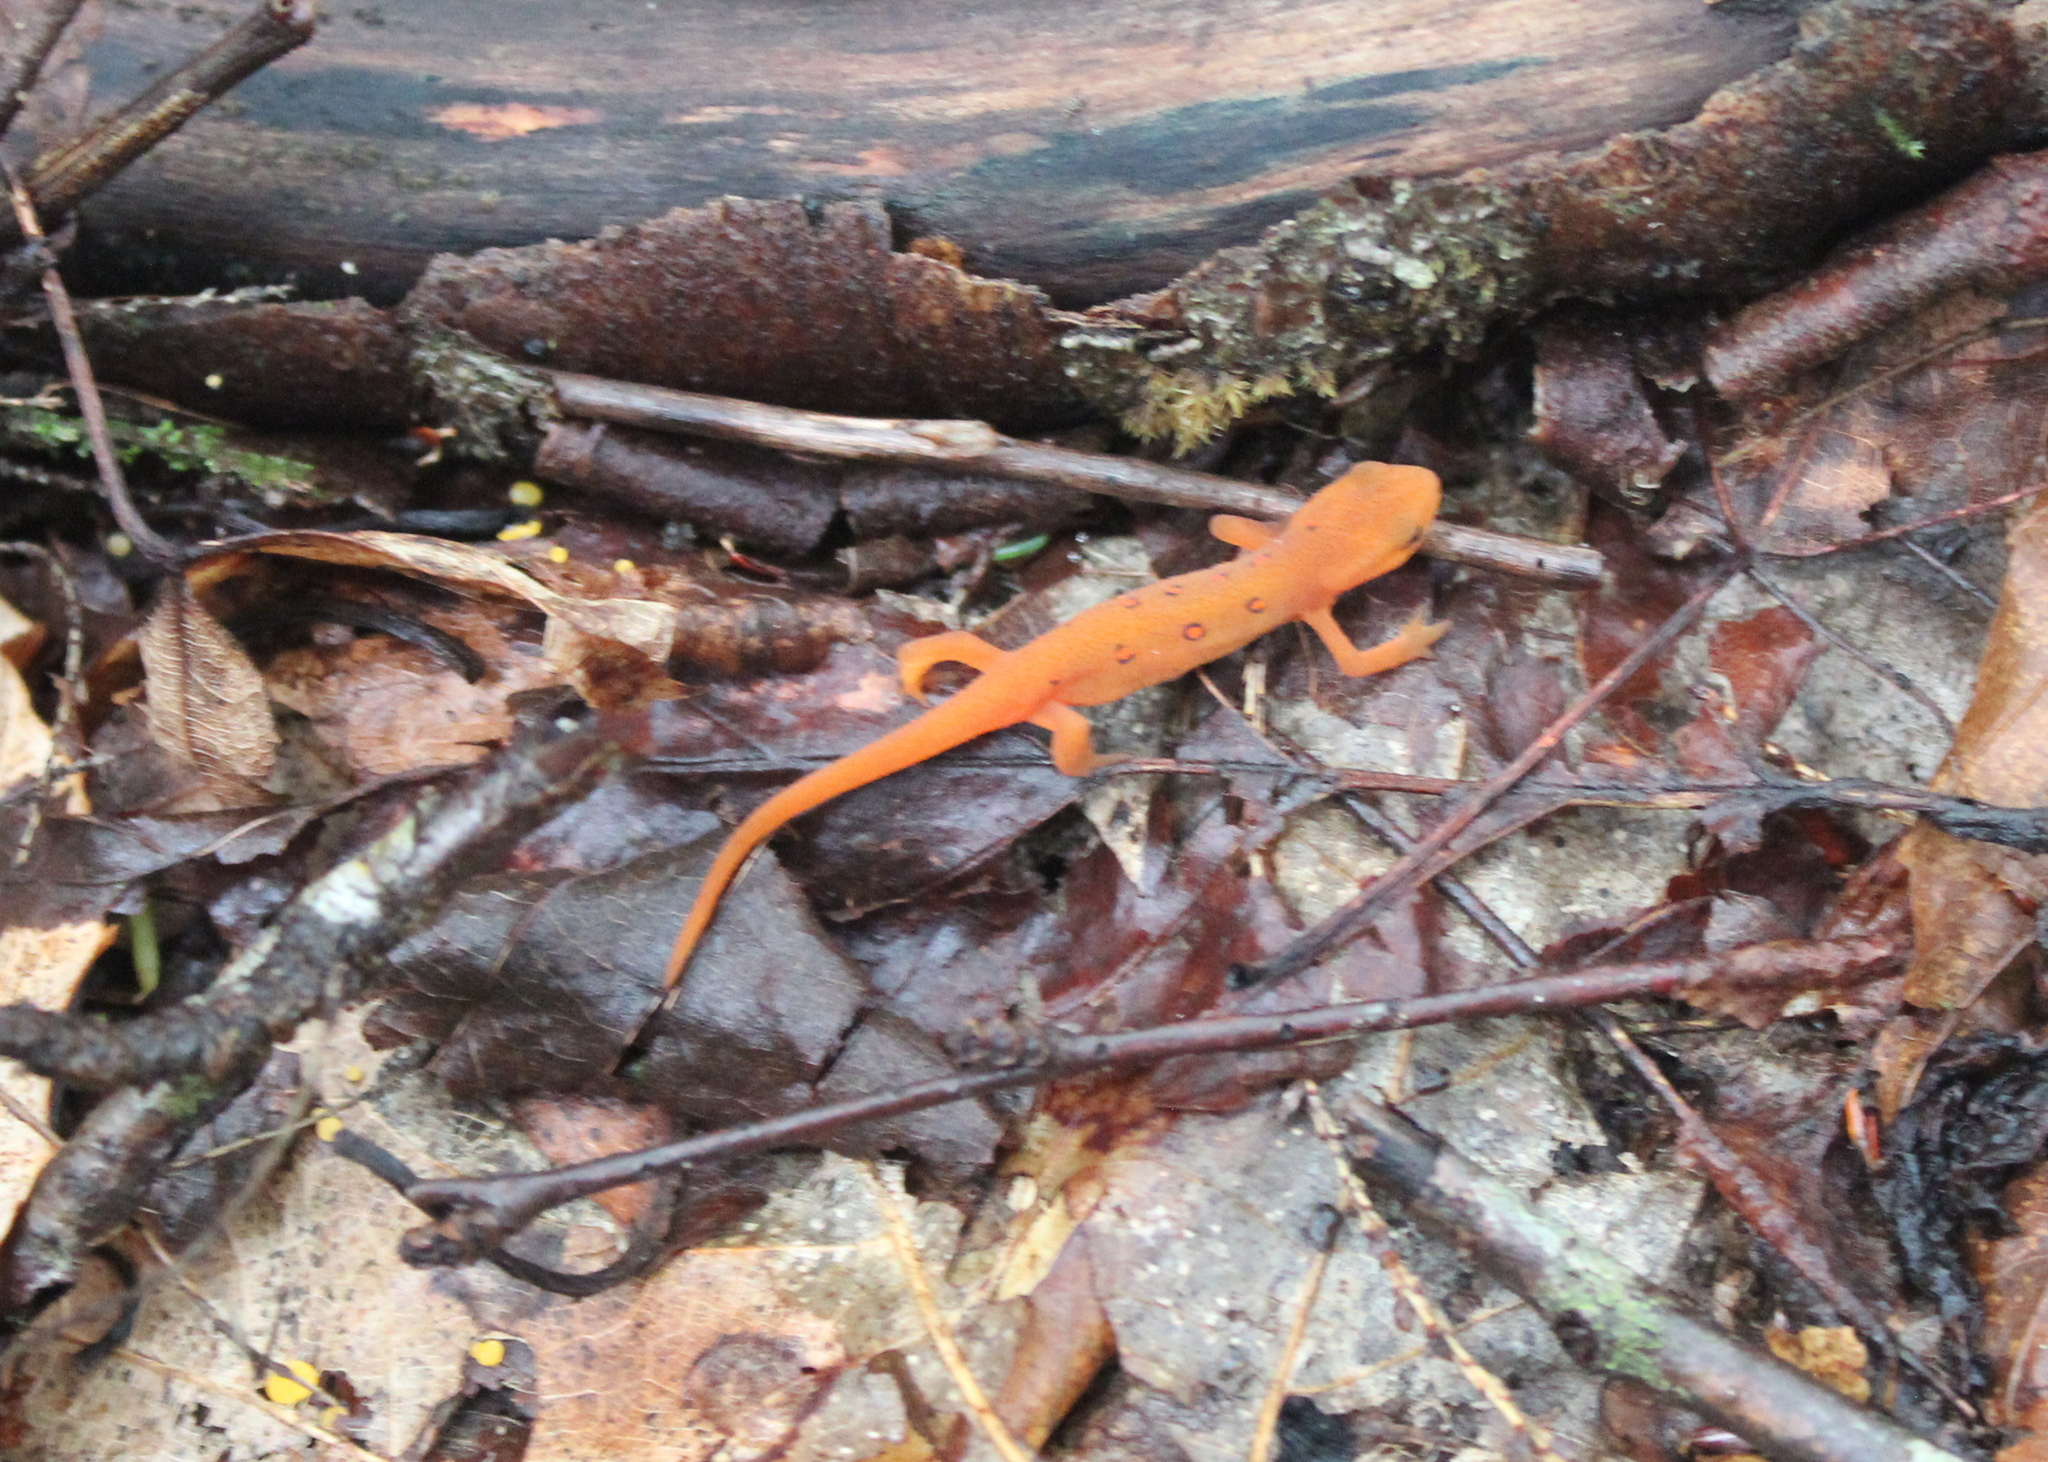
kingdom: Animalia
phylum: Chordata
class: Amphibia
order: Caudata
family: Salamandridae
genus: Notophthalmus
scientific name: Notophthalmus viridescens
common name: Eastern newt
